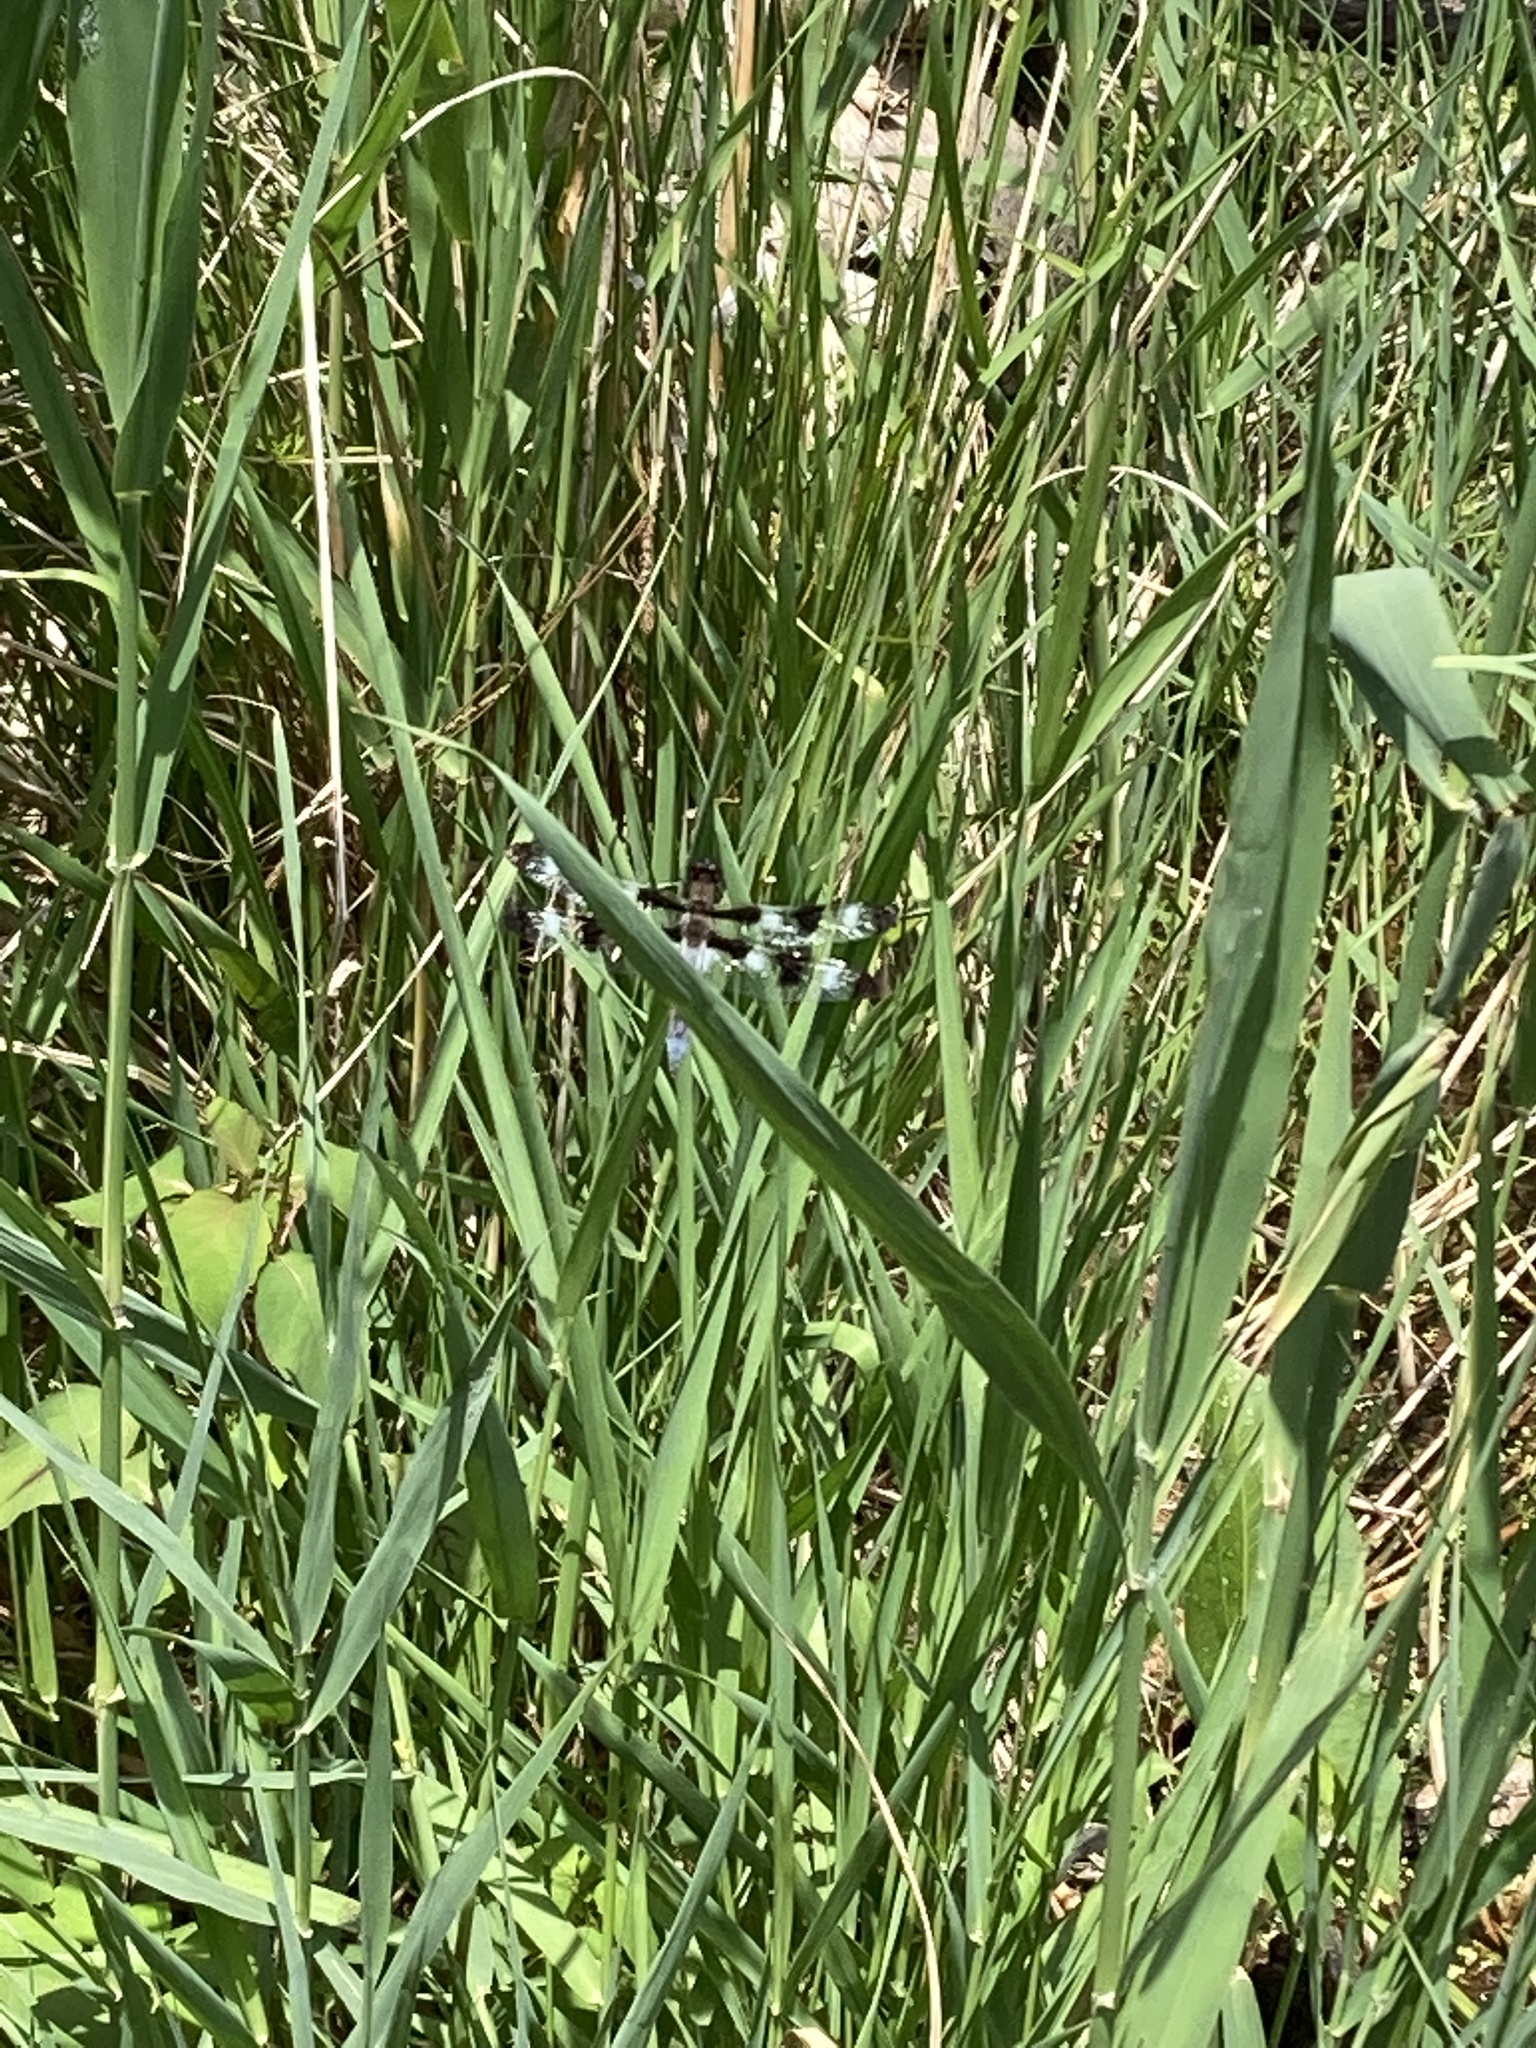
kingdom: Animalia
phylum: Arthropoda
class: Insecta
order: Odonata
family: Libellulidae
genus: Libellula
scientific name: Libellula pulchella
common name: Twelve-spotted skimmer
